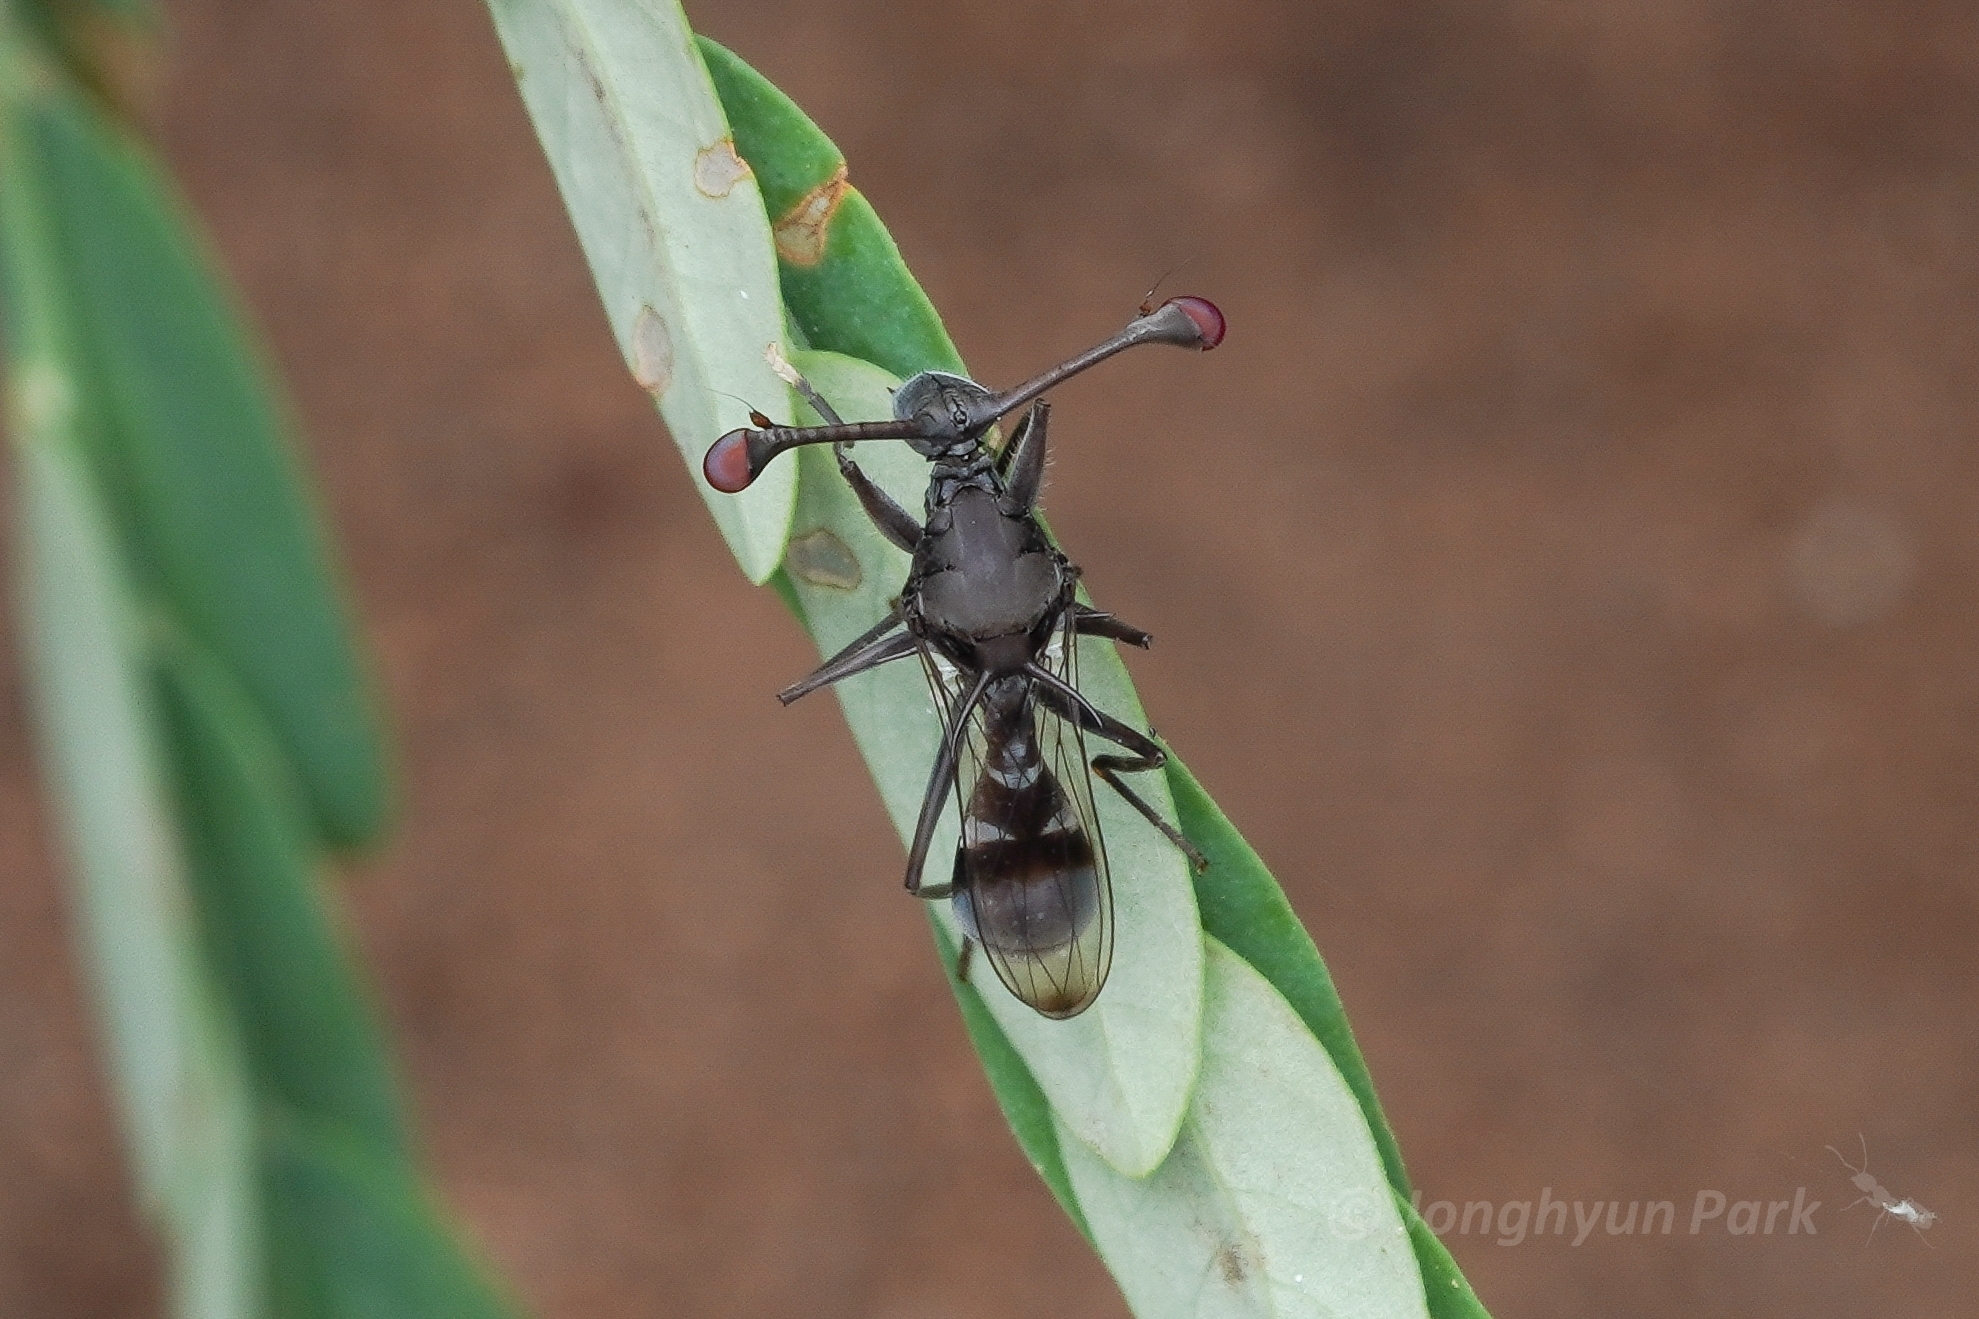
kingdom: Animalia
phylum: Arthropoda
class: Insecta
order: Diptera
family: Diopsidae
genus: Chaetodiopsis
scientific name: Chaetodiopsis
